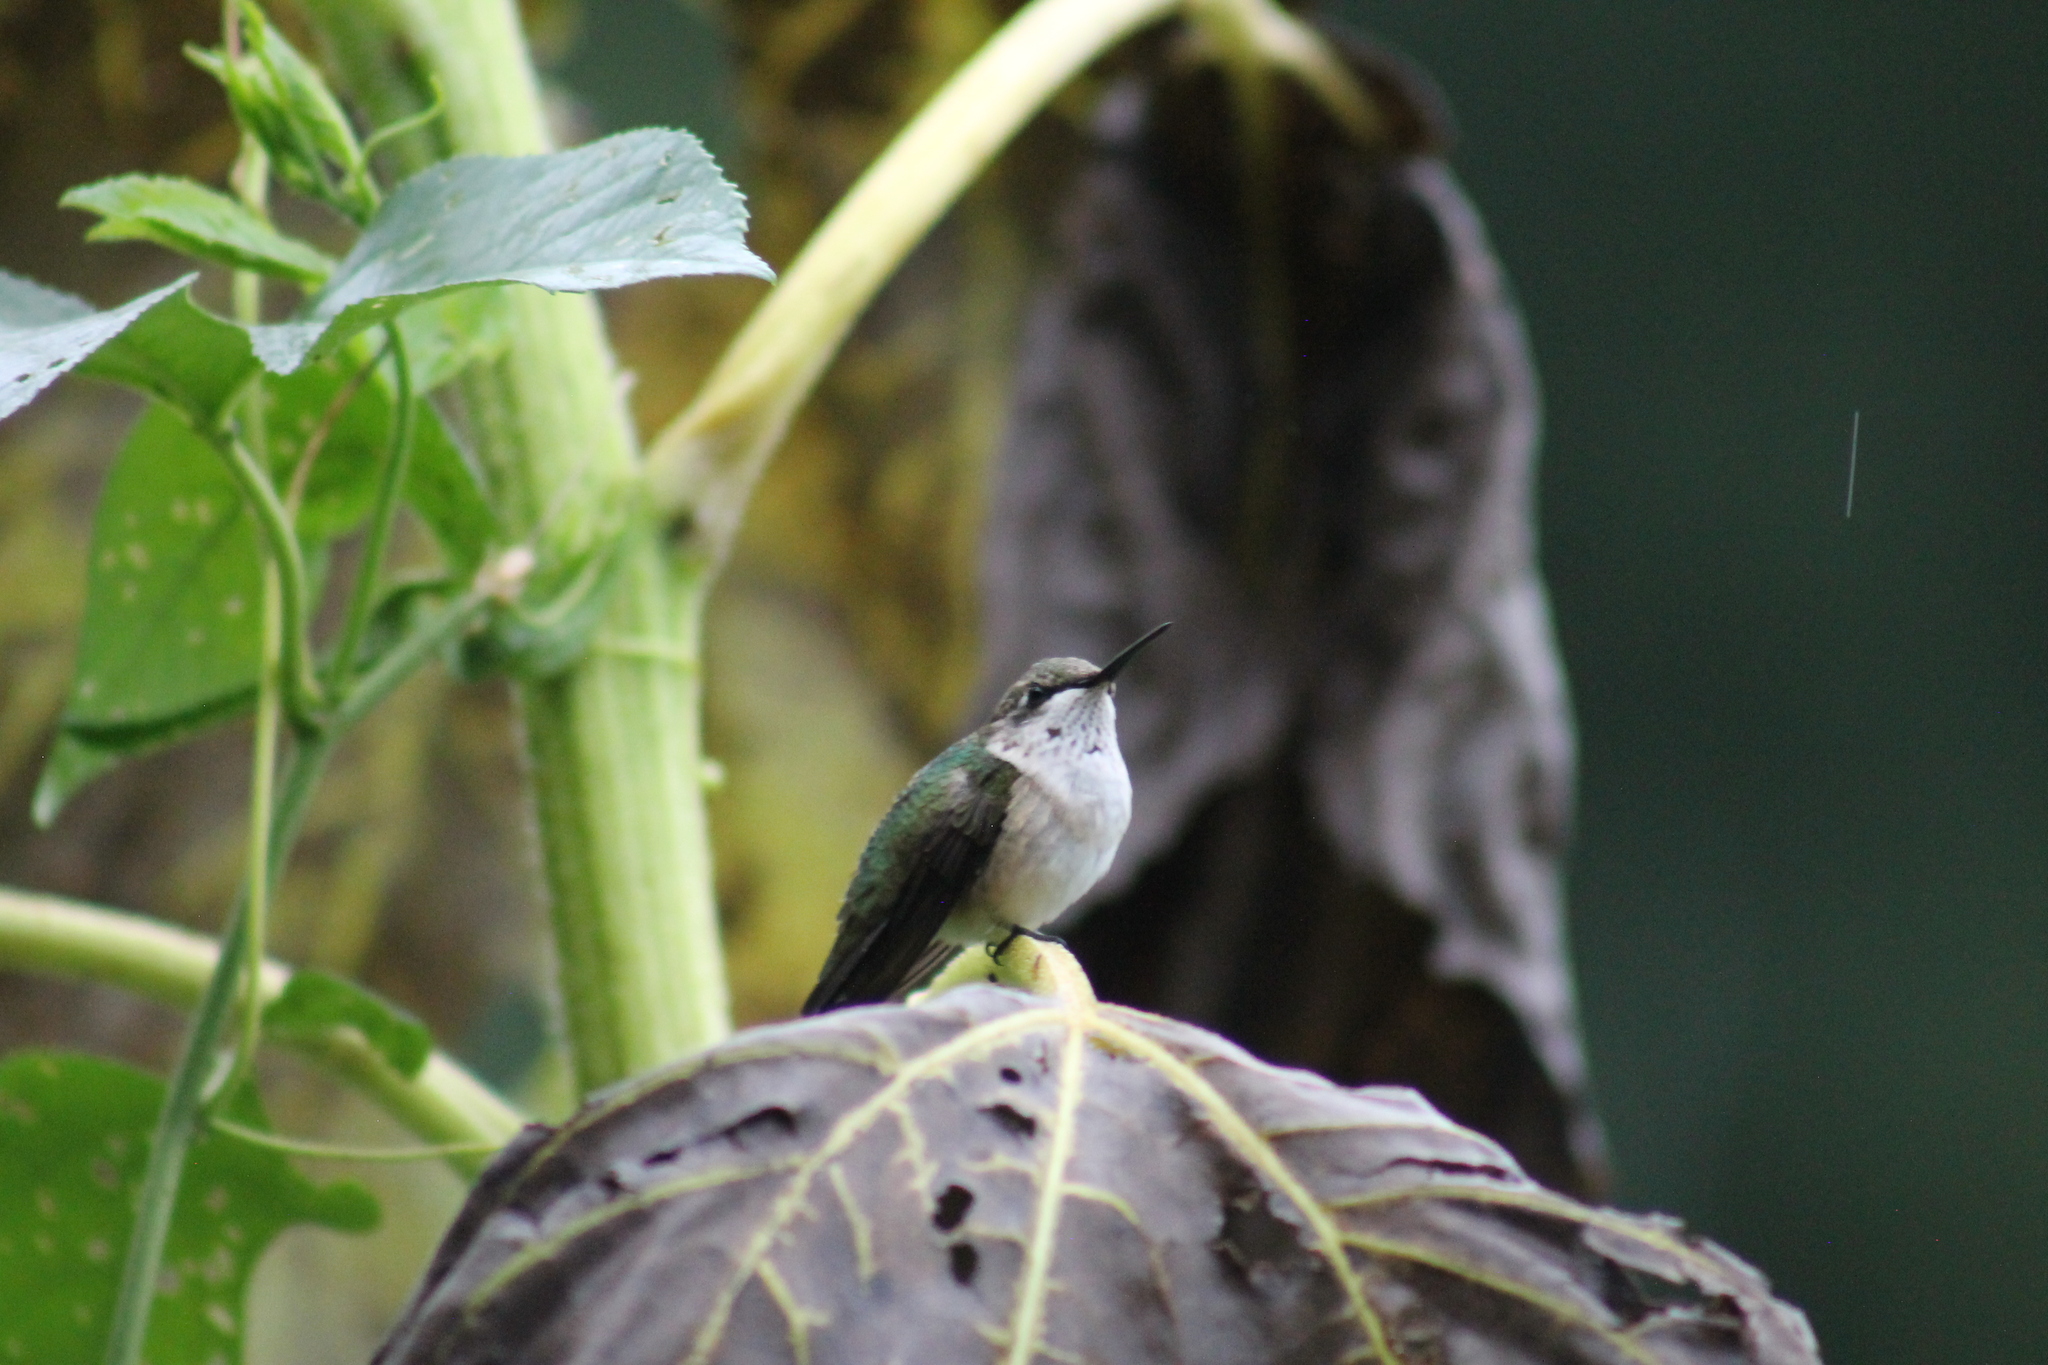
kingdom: Animalia
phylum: Chordata
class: Aves
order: Apodiformes
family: Trochilidae
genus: Archilochus
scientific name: Archilochus colubris
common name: Ruby-throated hummingbird
